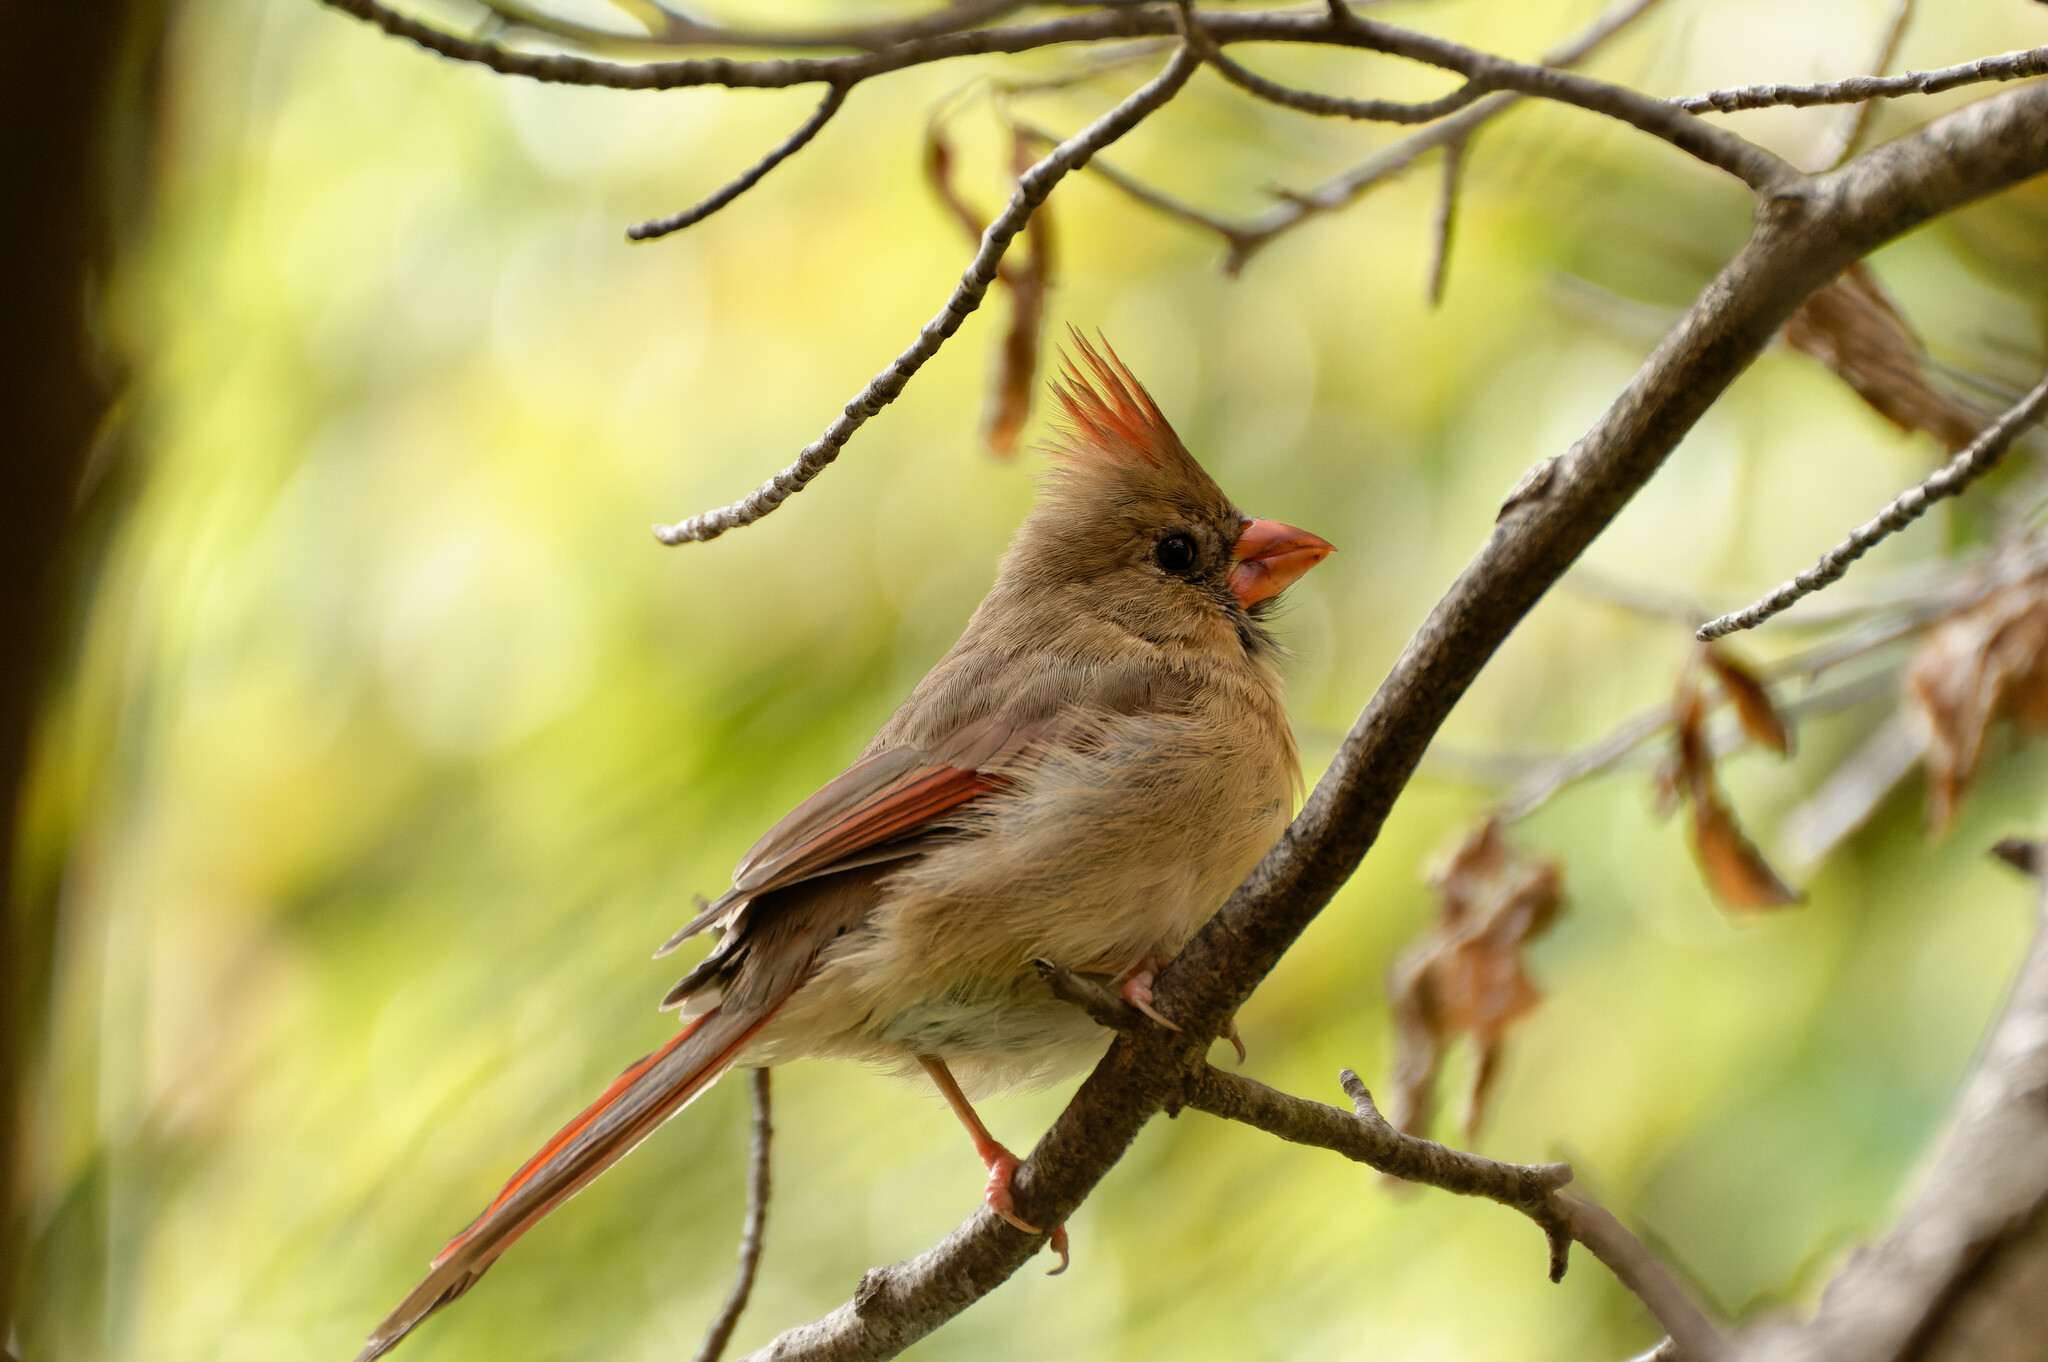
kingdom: Animalia
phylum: Chordata
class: Aves
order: Passeriformes
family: Cardinalidae
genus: Cardinalis
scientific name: Cardinalis cardinalis
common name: Northern cardinal
